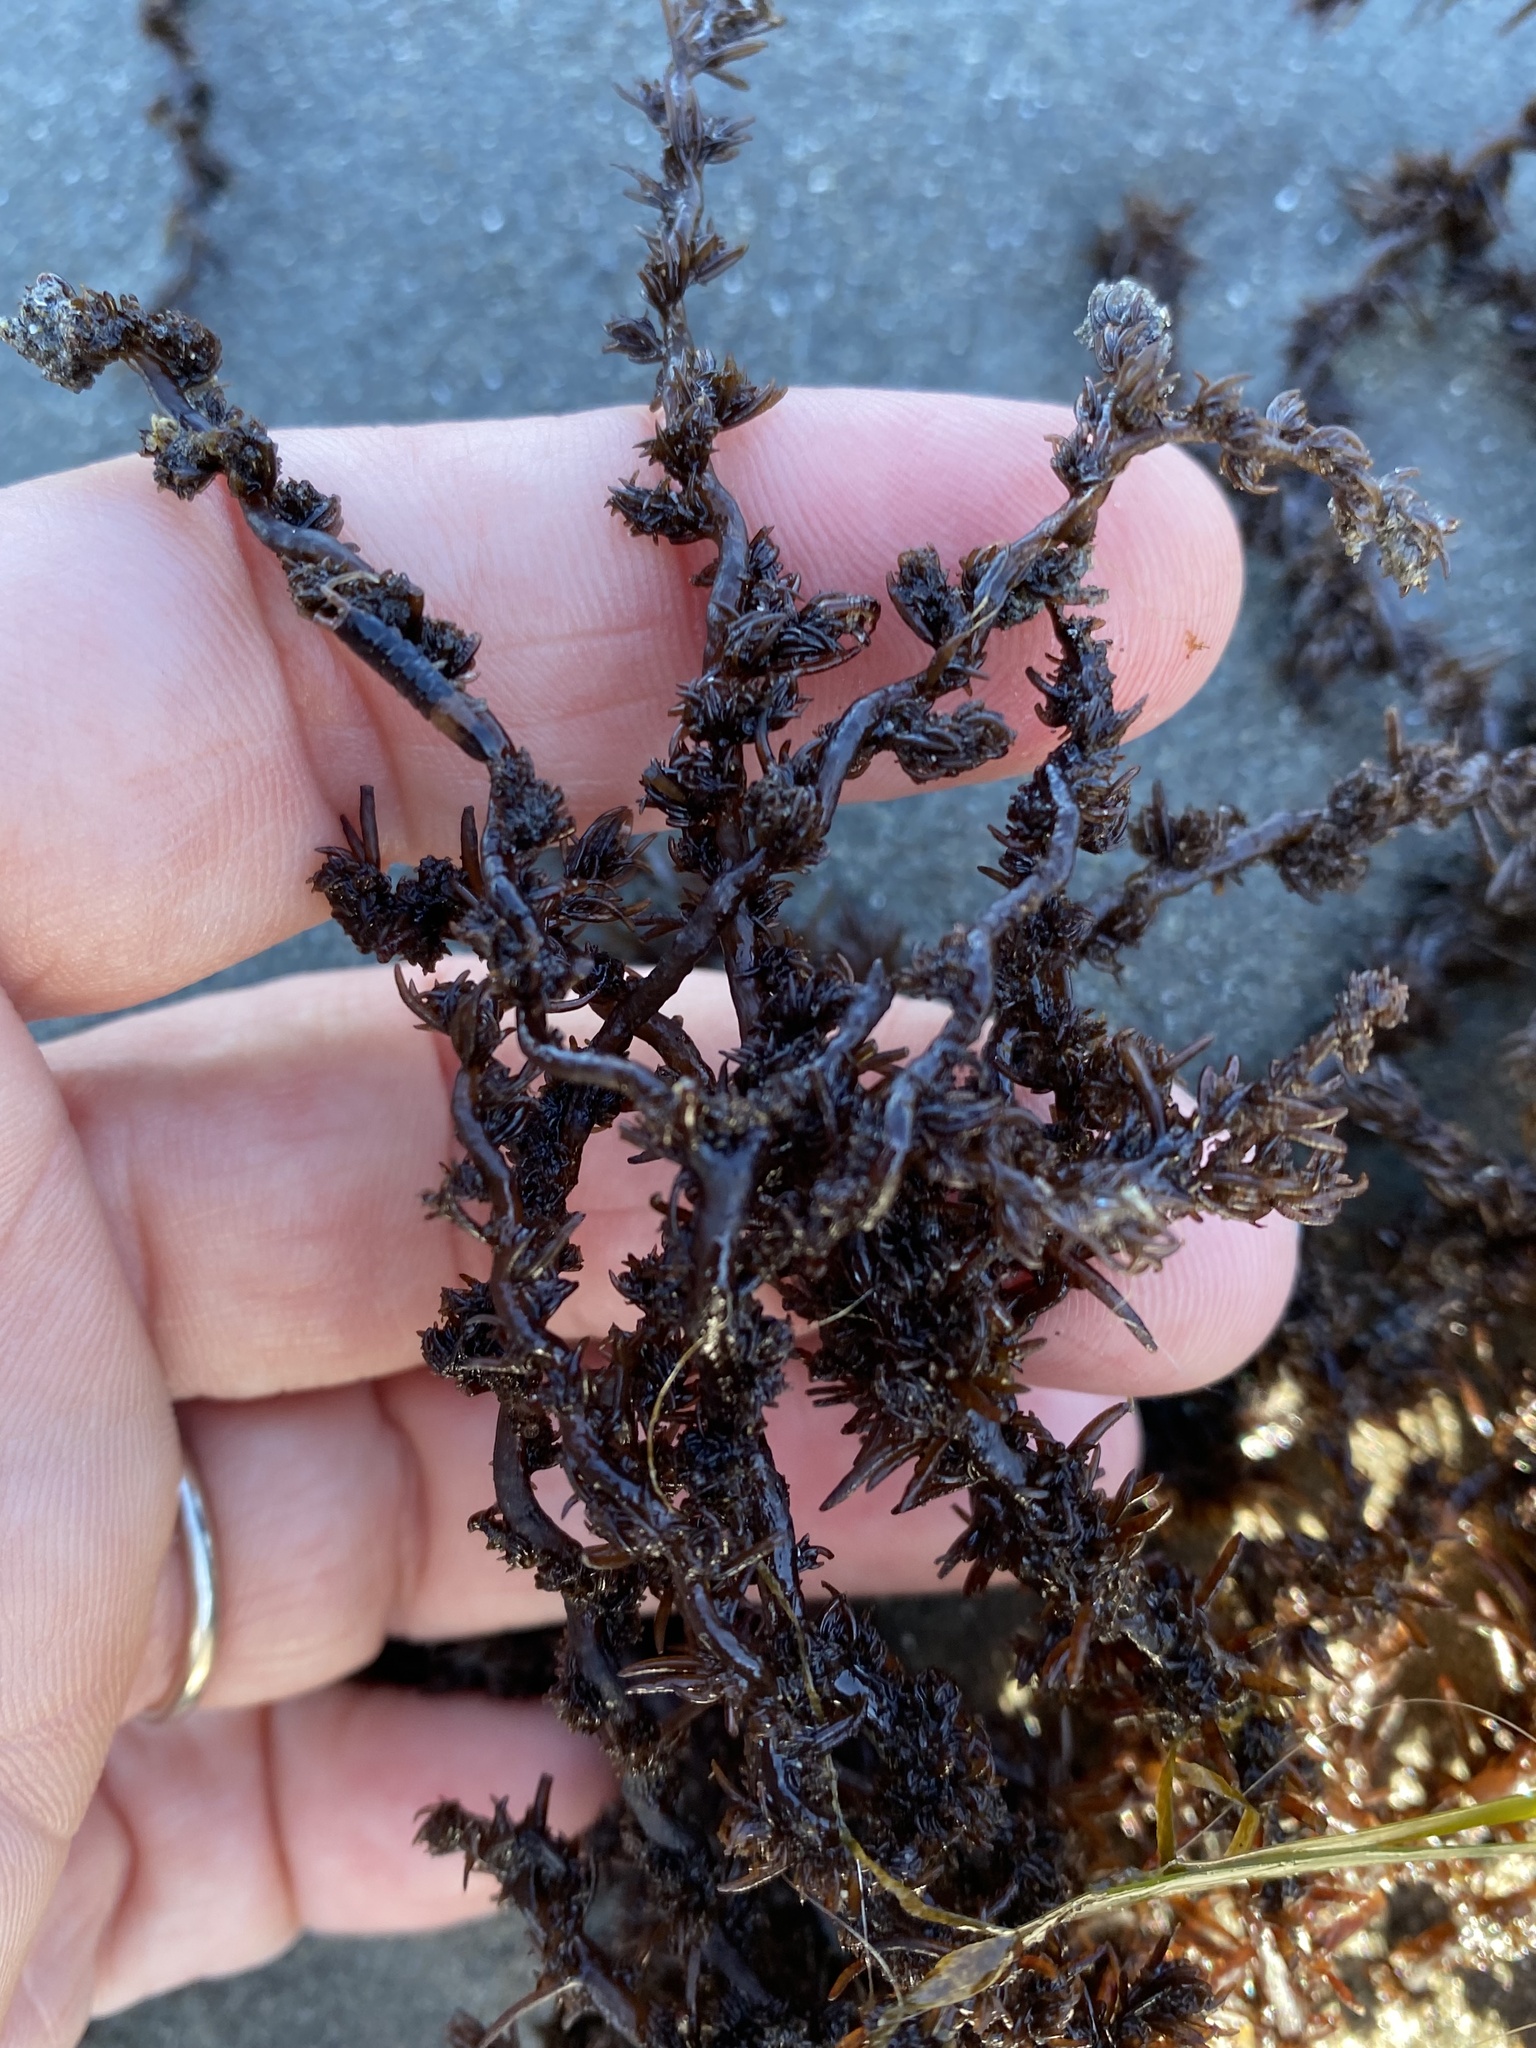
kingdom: Plantae
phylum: Rhodophyta
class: Florideophyceae
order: Ceramiales
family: Rhodomelaceae
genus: Neorhodomela
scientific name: Neorhodomela larix
